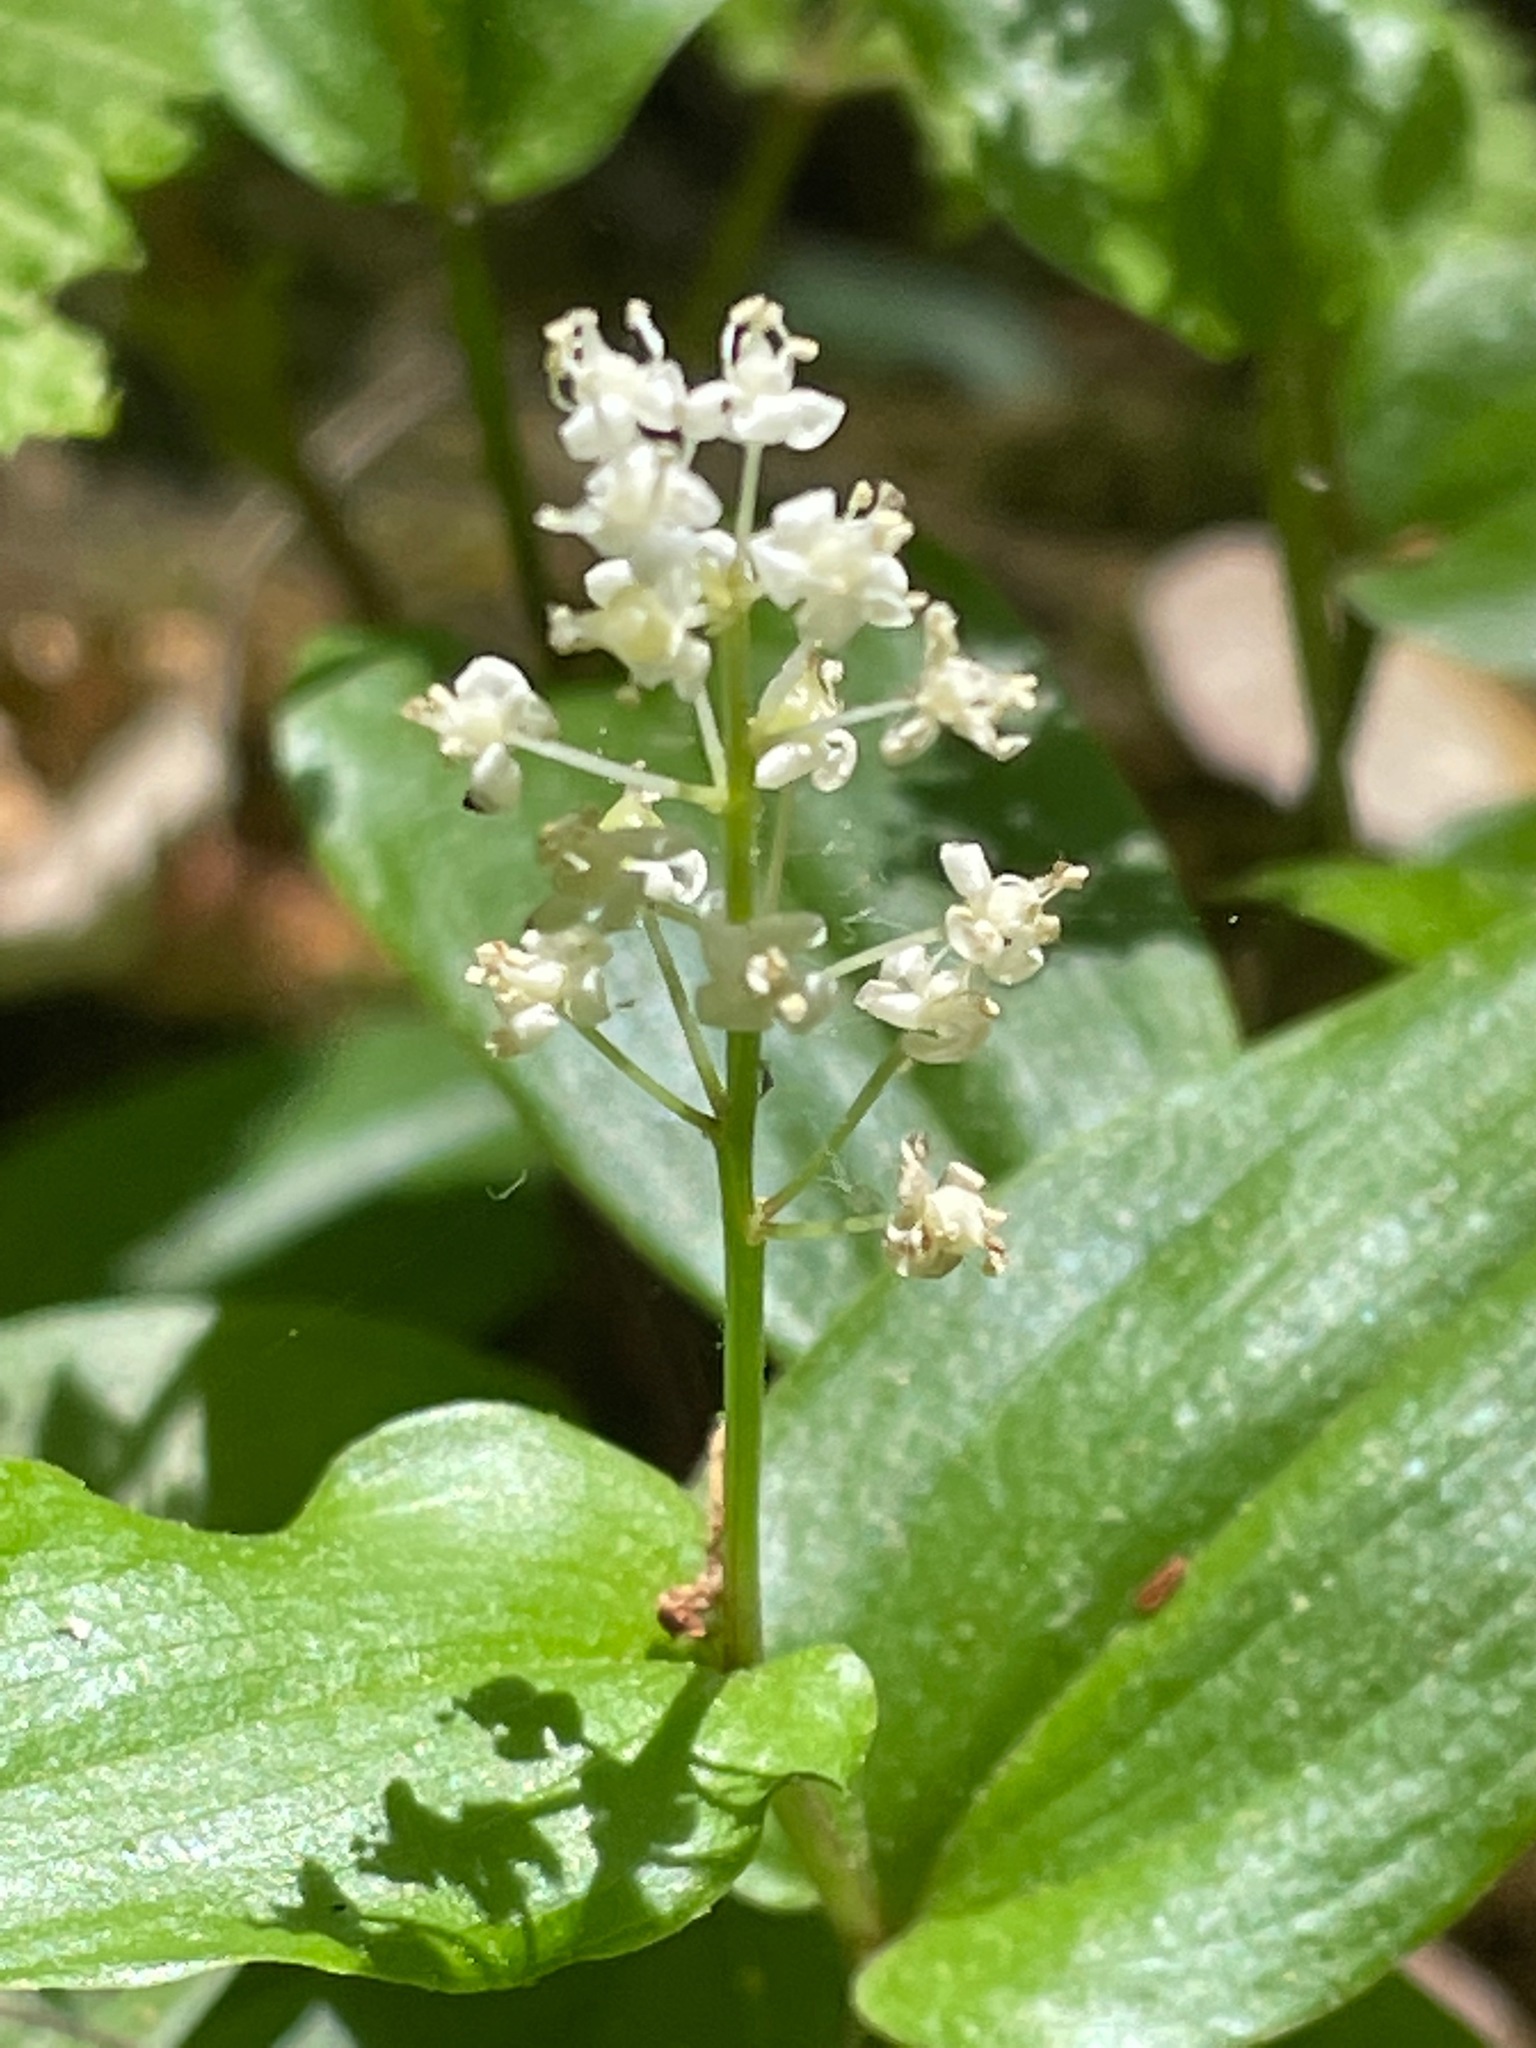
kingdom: Plantae
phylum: Tracheophyta
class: Liliopsida
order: Asparagales
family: Asparagaceae
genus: Maianthemum
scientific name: Maianthemum canadense
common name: False lily-of-the-valley
